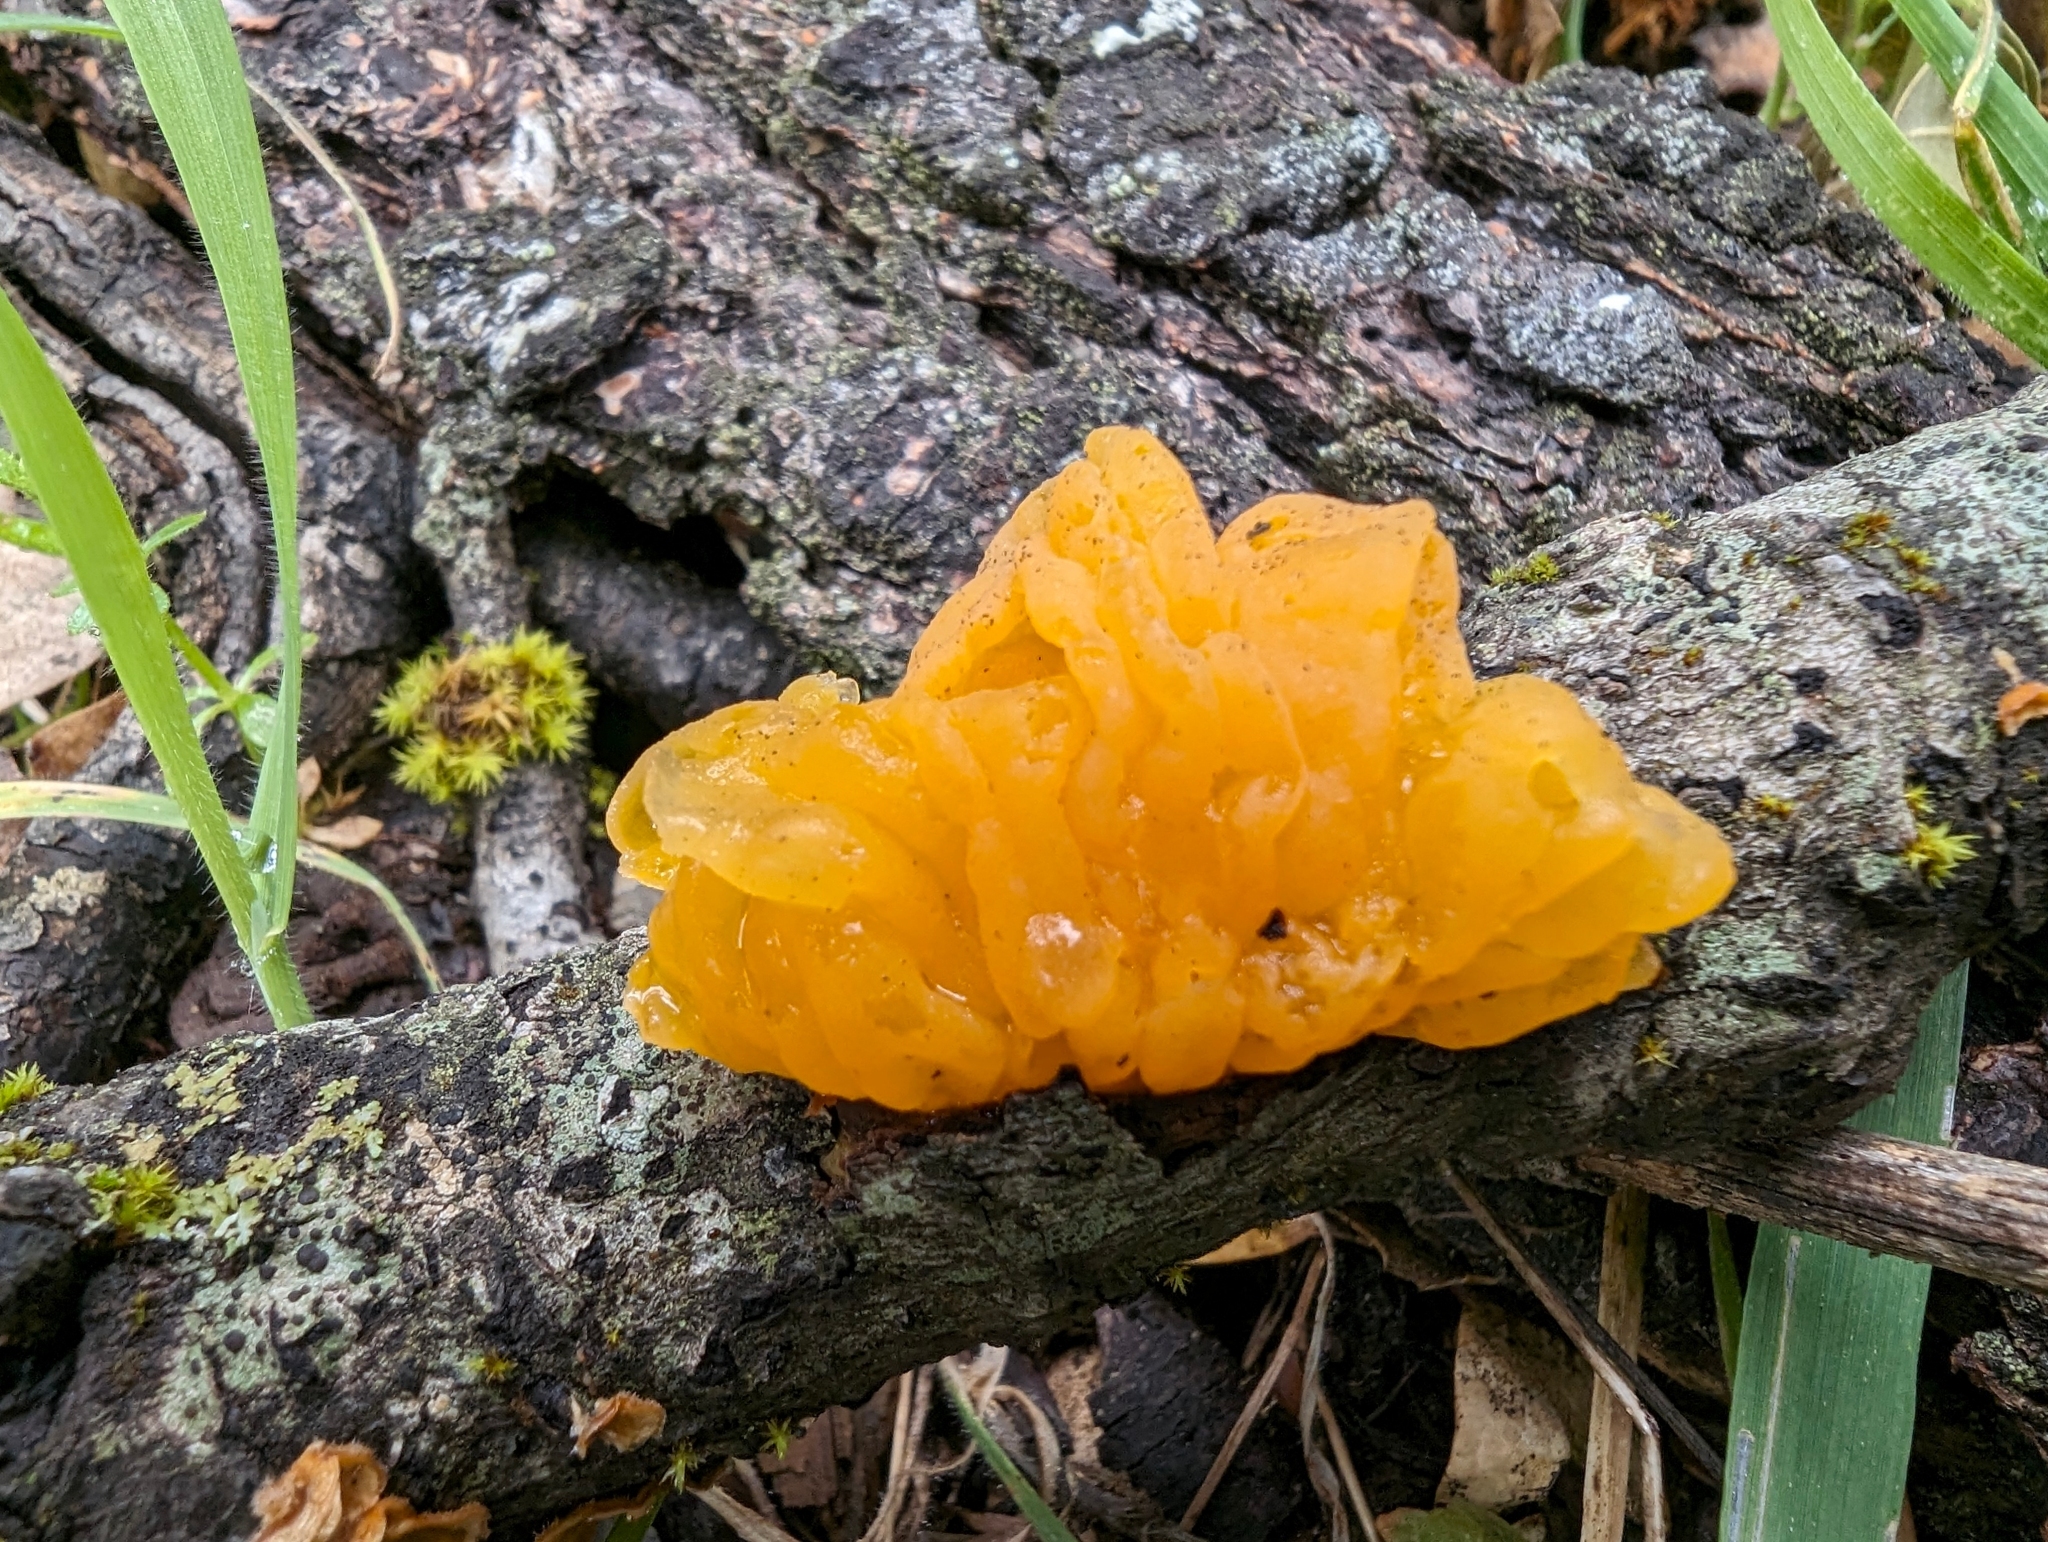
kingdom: Fungi
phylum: Basidiomycota
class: Tremellomycetes
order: Tremellales
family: Naemateliaceae
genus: Naematelia
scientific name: Naematelia aurantia
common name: Golden ear
